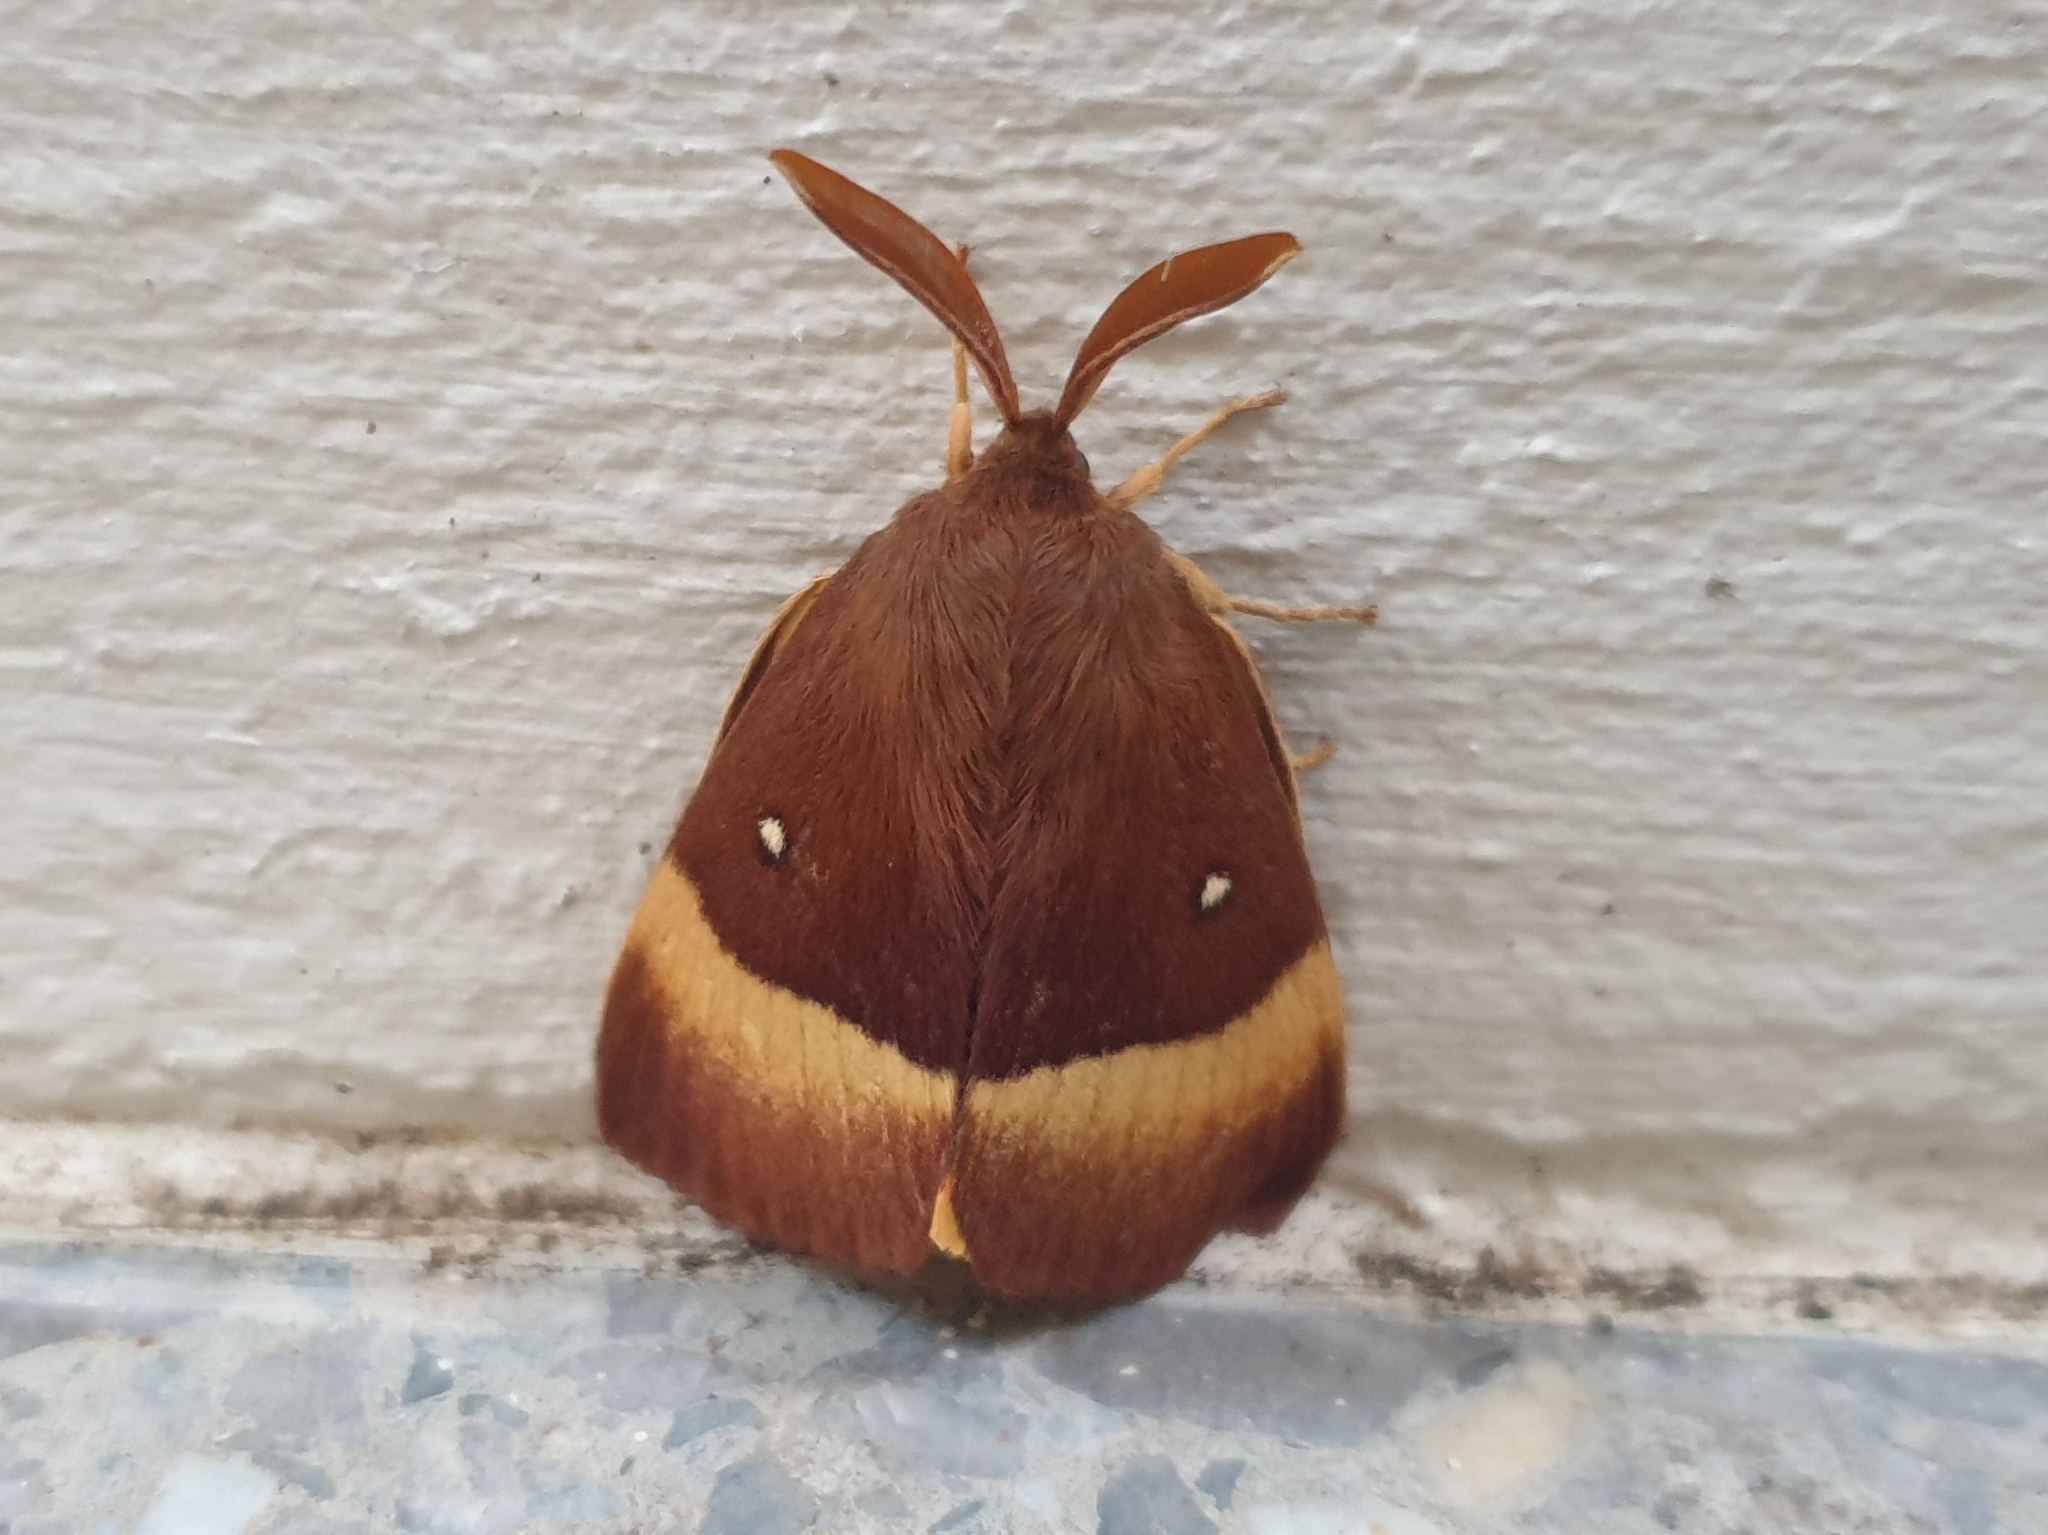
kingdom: Animalia
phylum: Arthropoda
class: Insecta
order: Lepidoptera
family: Lasiocampidae
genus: Lasiocampa
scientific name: Lasiocampa quercus
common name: Oak eggar
